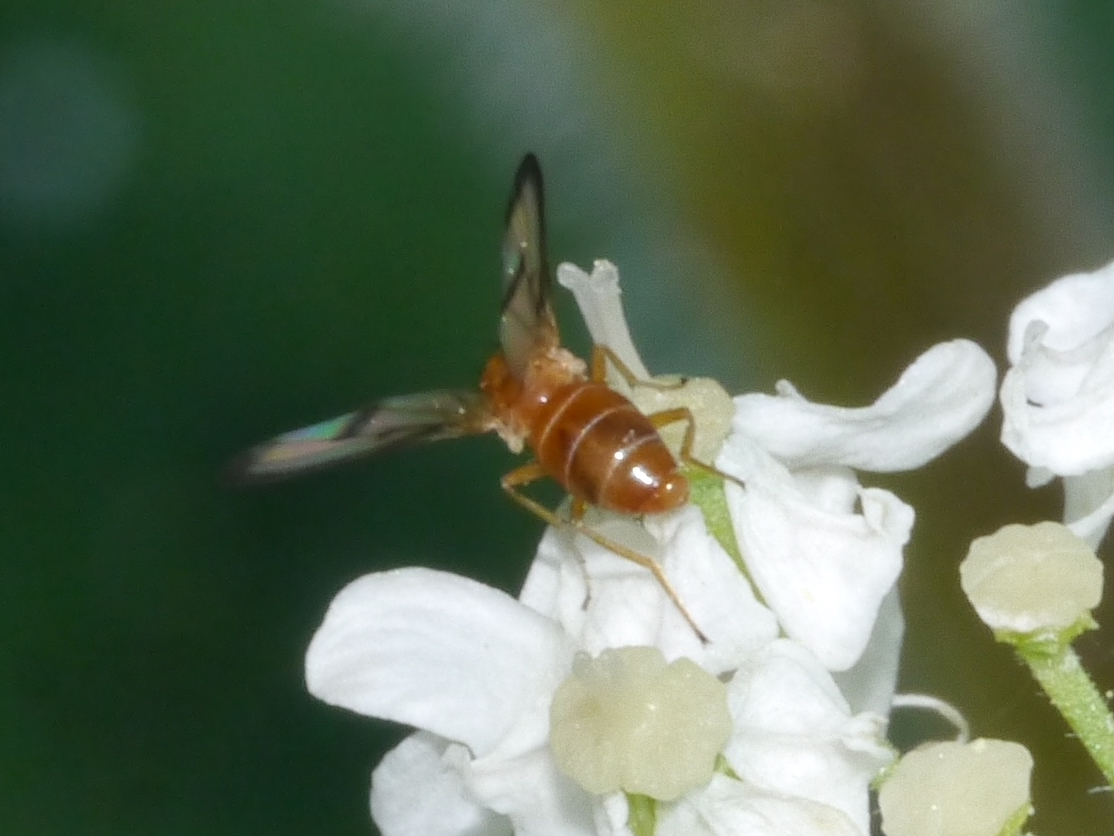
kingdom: Animalia
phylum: Arthropoda
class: Insecta
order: Diptera
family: Pallopteridae
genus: Toxonevra
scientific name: Toxonevra jucunda
